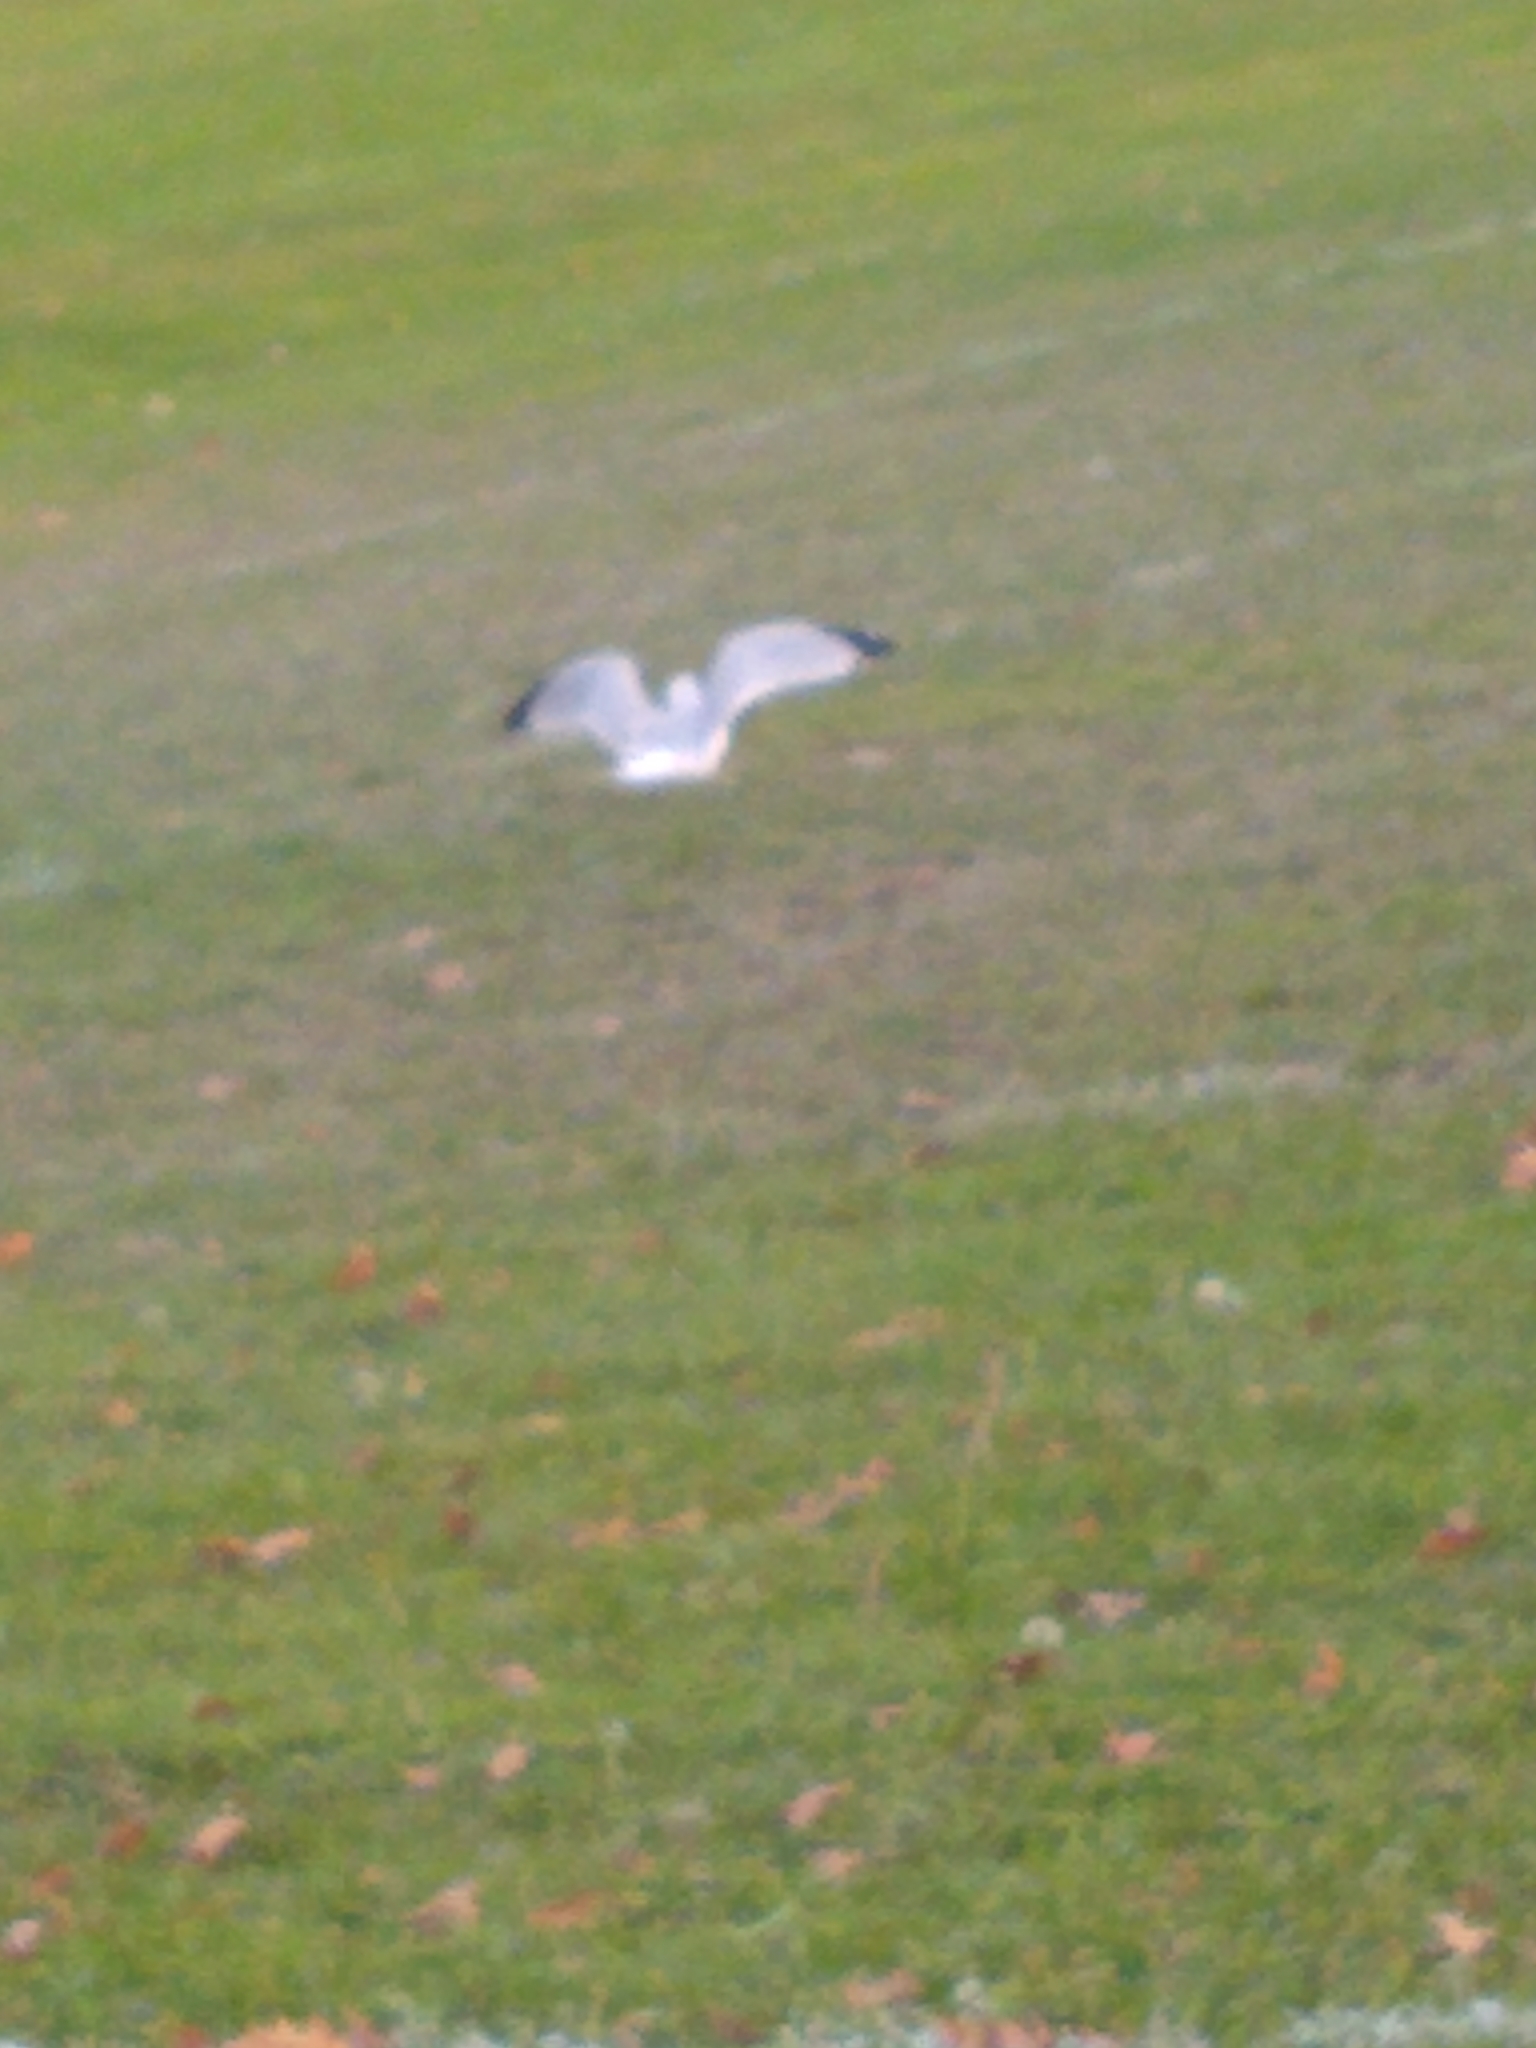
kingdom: Animalia
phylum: Chordata
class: Aves
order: Charadriiformes
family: Laridae
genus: Larus
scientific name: Larus delawarensis
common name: Ring-billed gull
